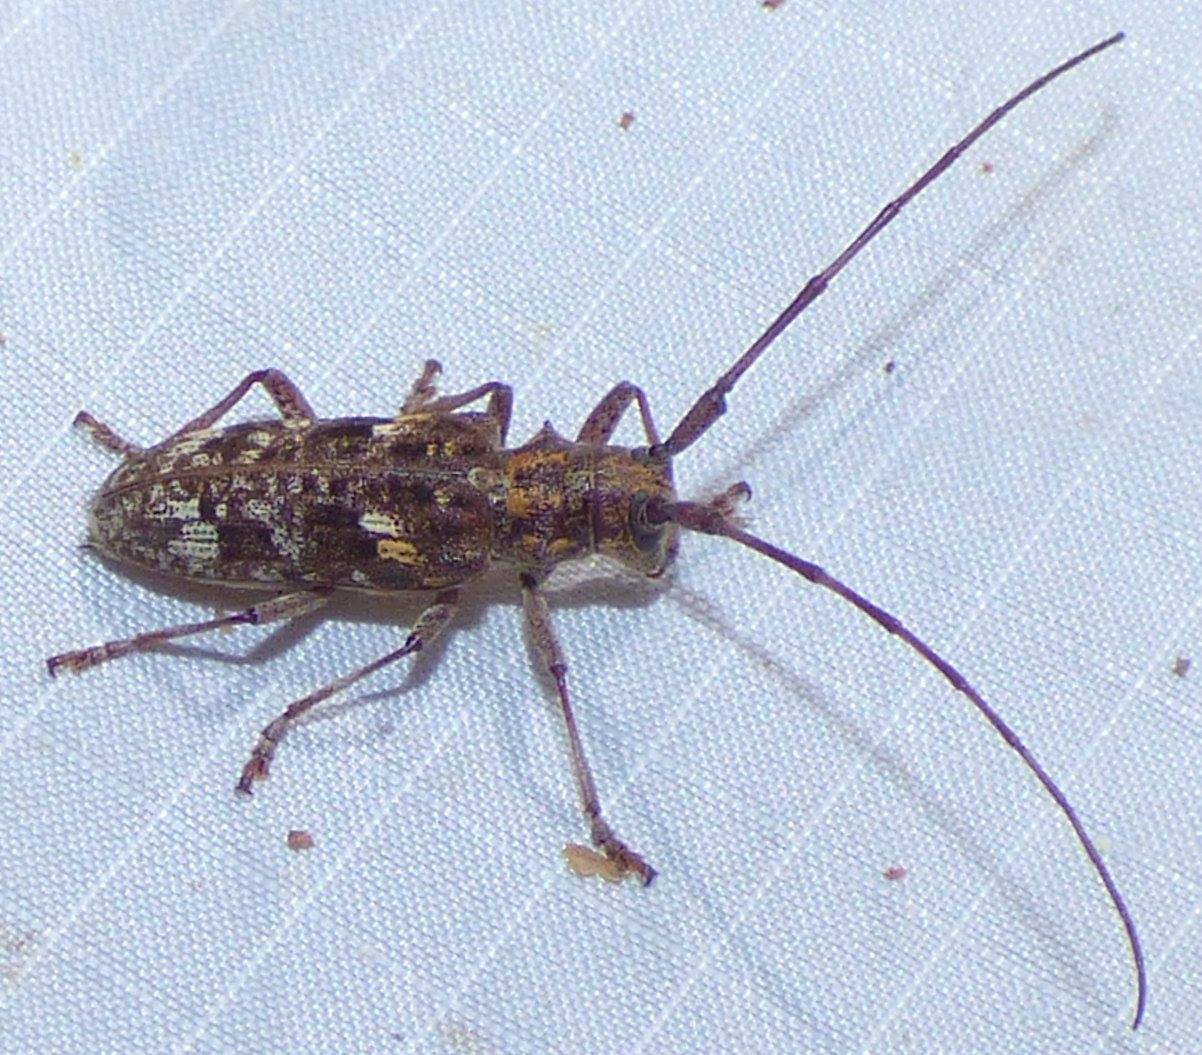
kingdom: Animalia
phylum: Arthropoda
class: Insecta
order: Coleoptera
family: Cerambycidae
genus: Monochamus
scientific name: Monochamus carolinensis
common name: Carolina pine sawyer
